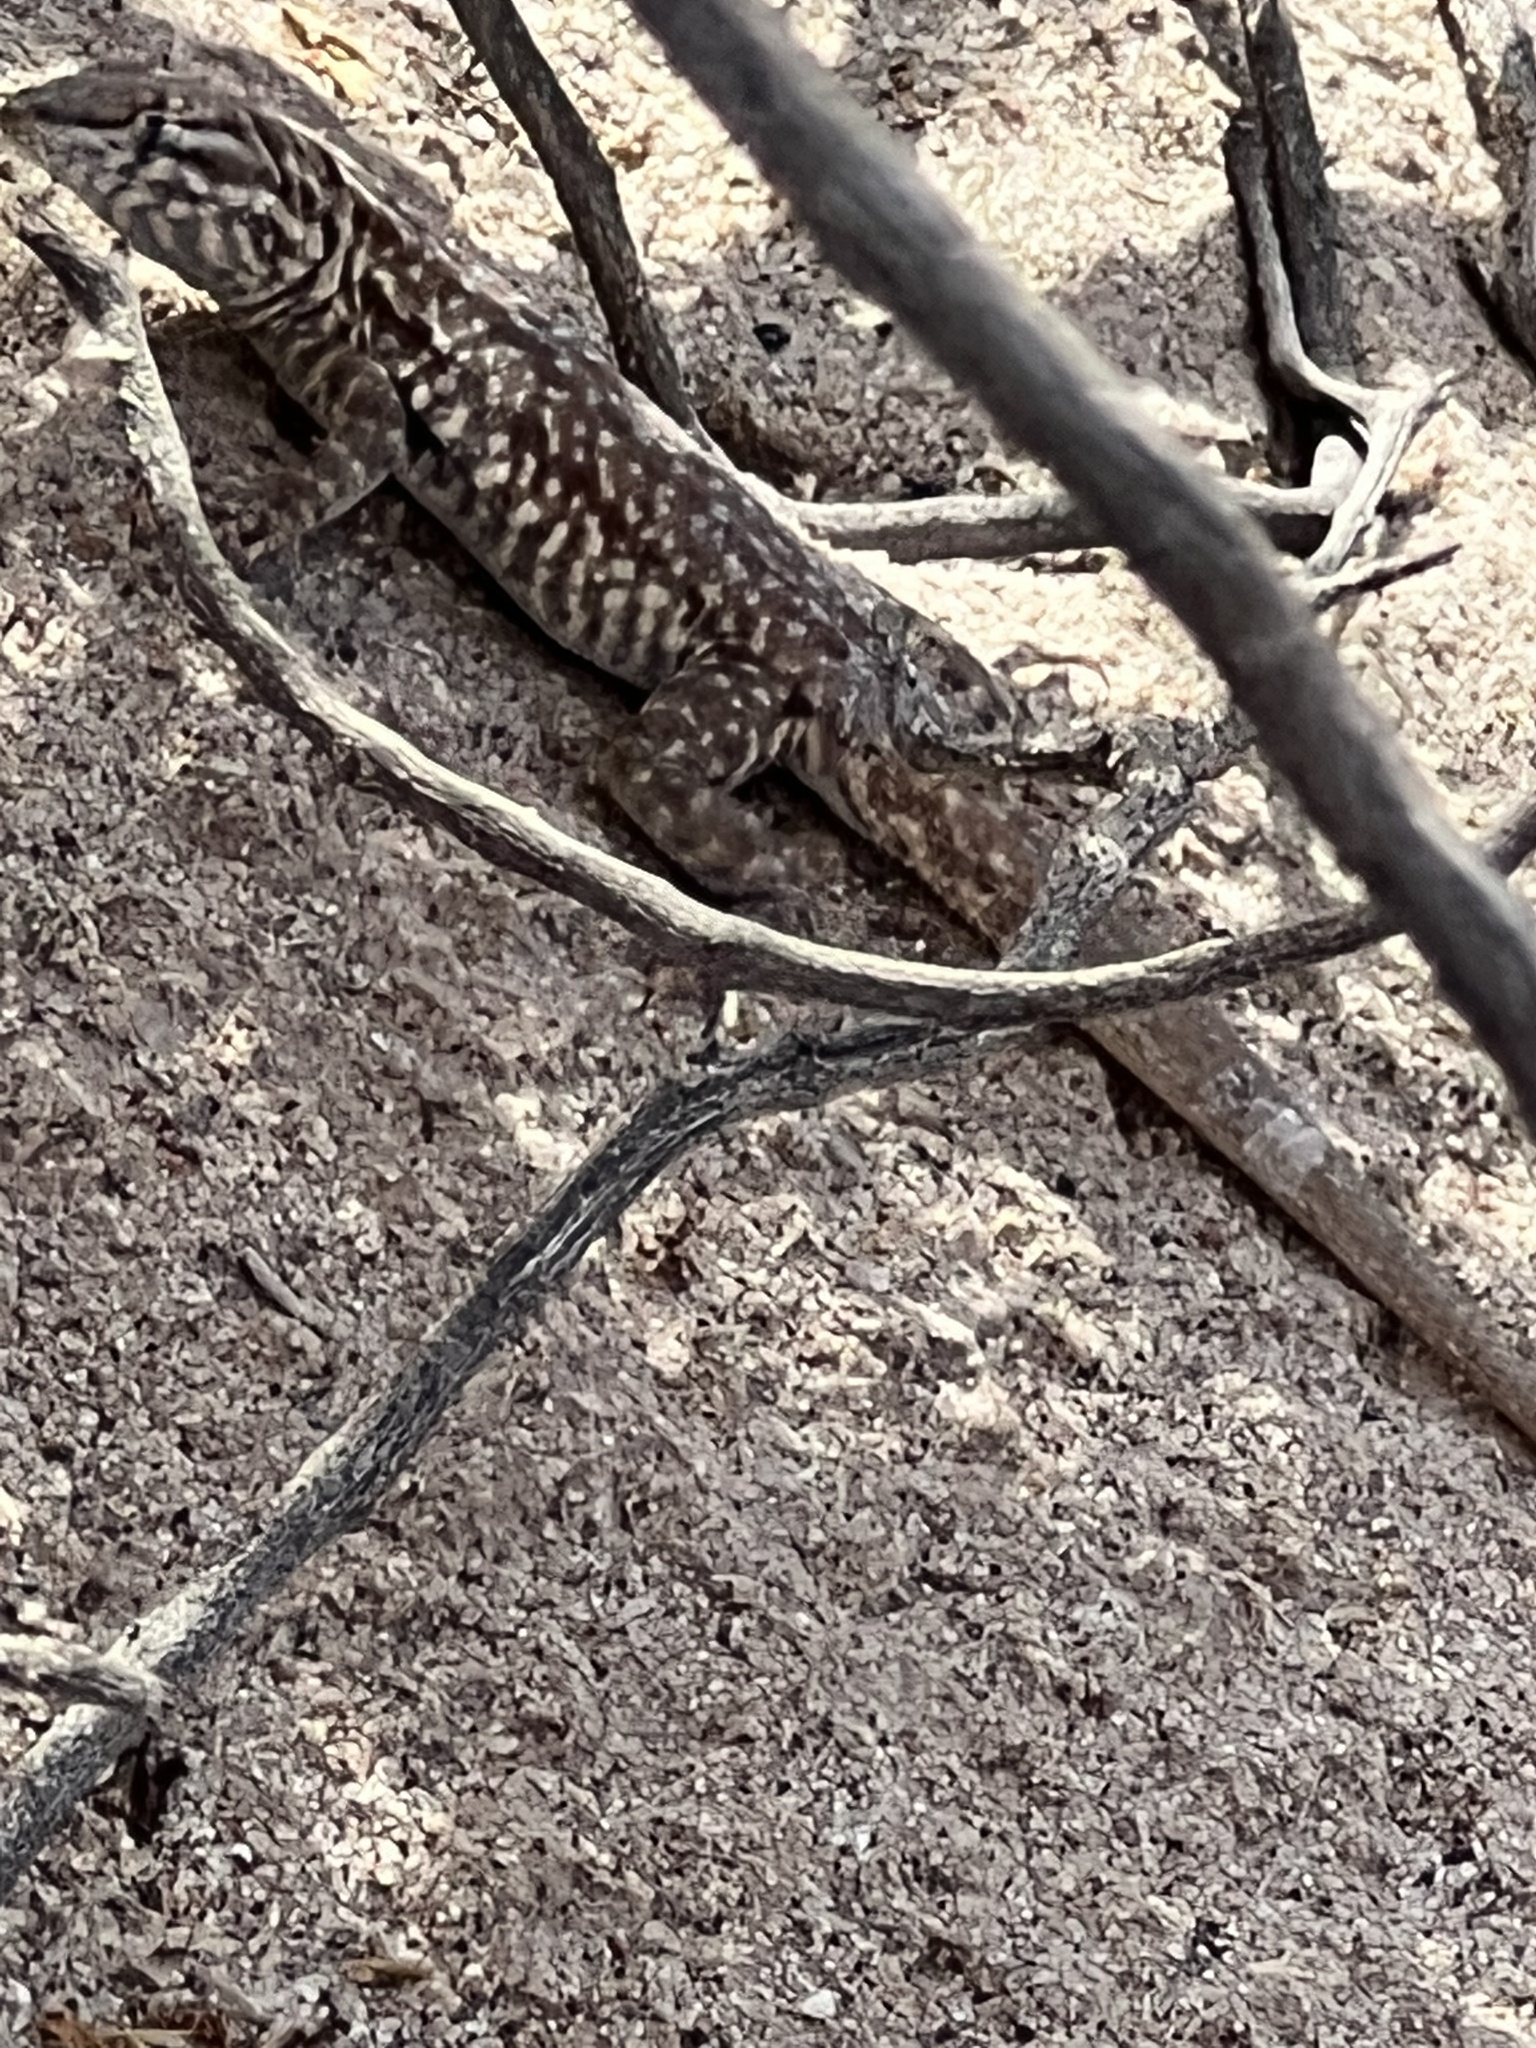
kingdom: Animalia
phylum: Chordata
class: Squamata
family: Phrynosomatidae
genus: Uta
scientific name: Uta stansburiana
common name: Side-blotched lizard
